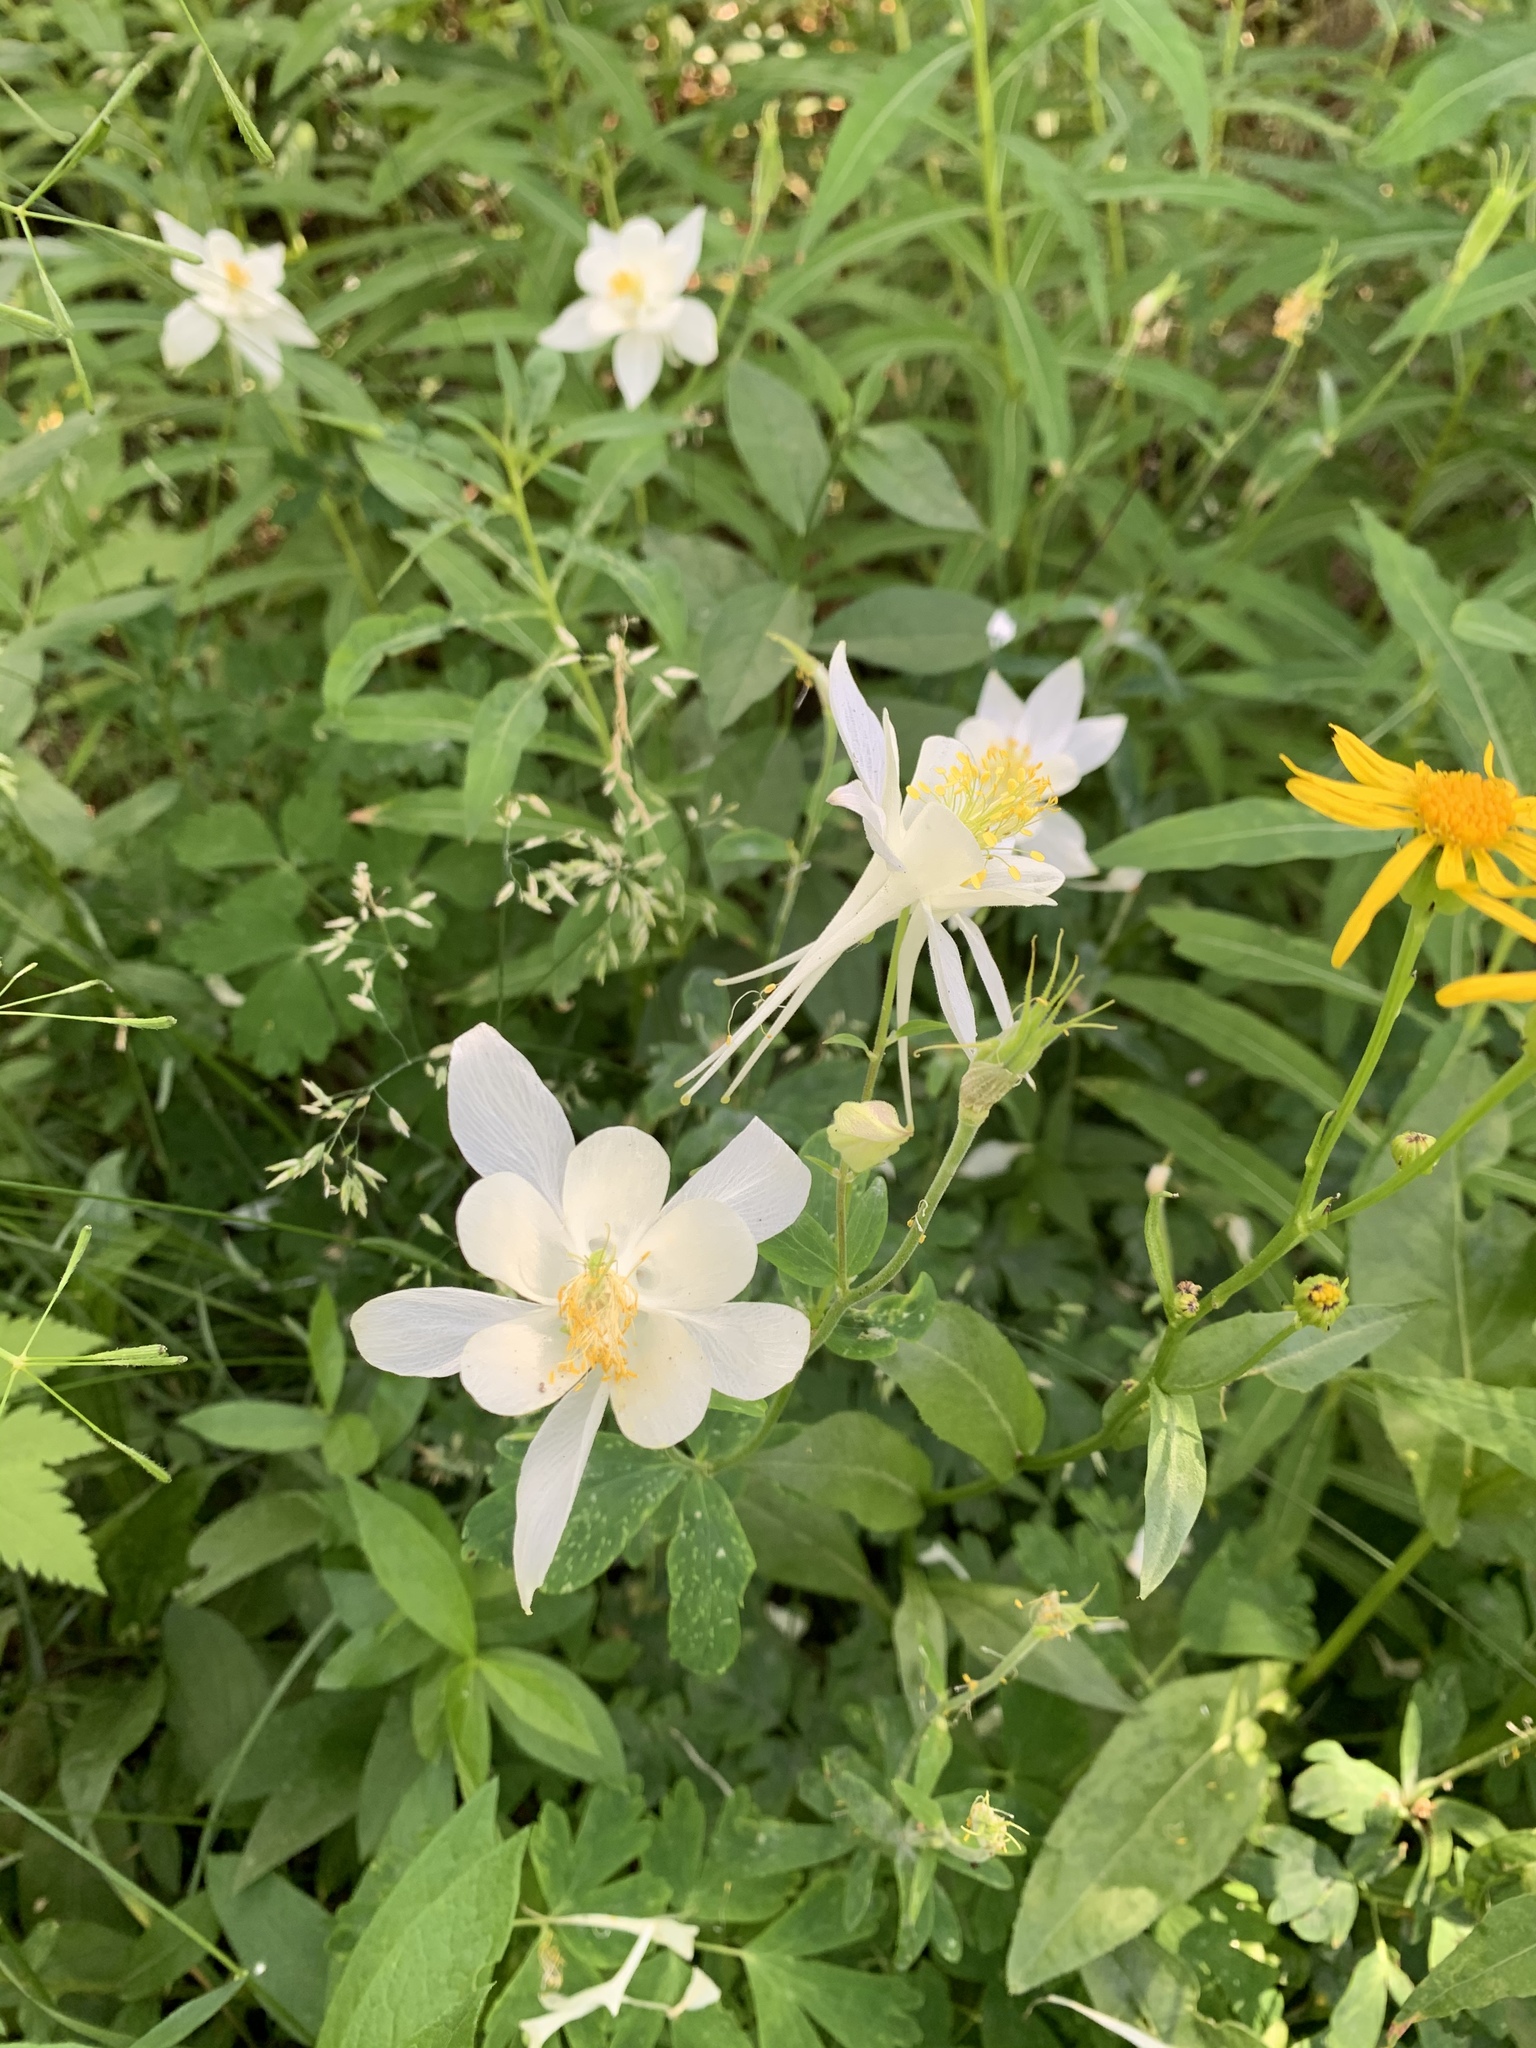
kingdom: Plantae
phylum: Tracheophyta
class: Magnoliopsida
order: Ranunculales
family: Ranunculaceae
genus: Aquilegia
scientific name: Aquilegia coerulea
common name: Rocky mountain columbine
